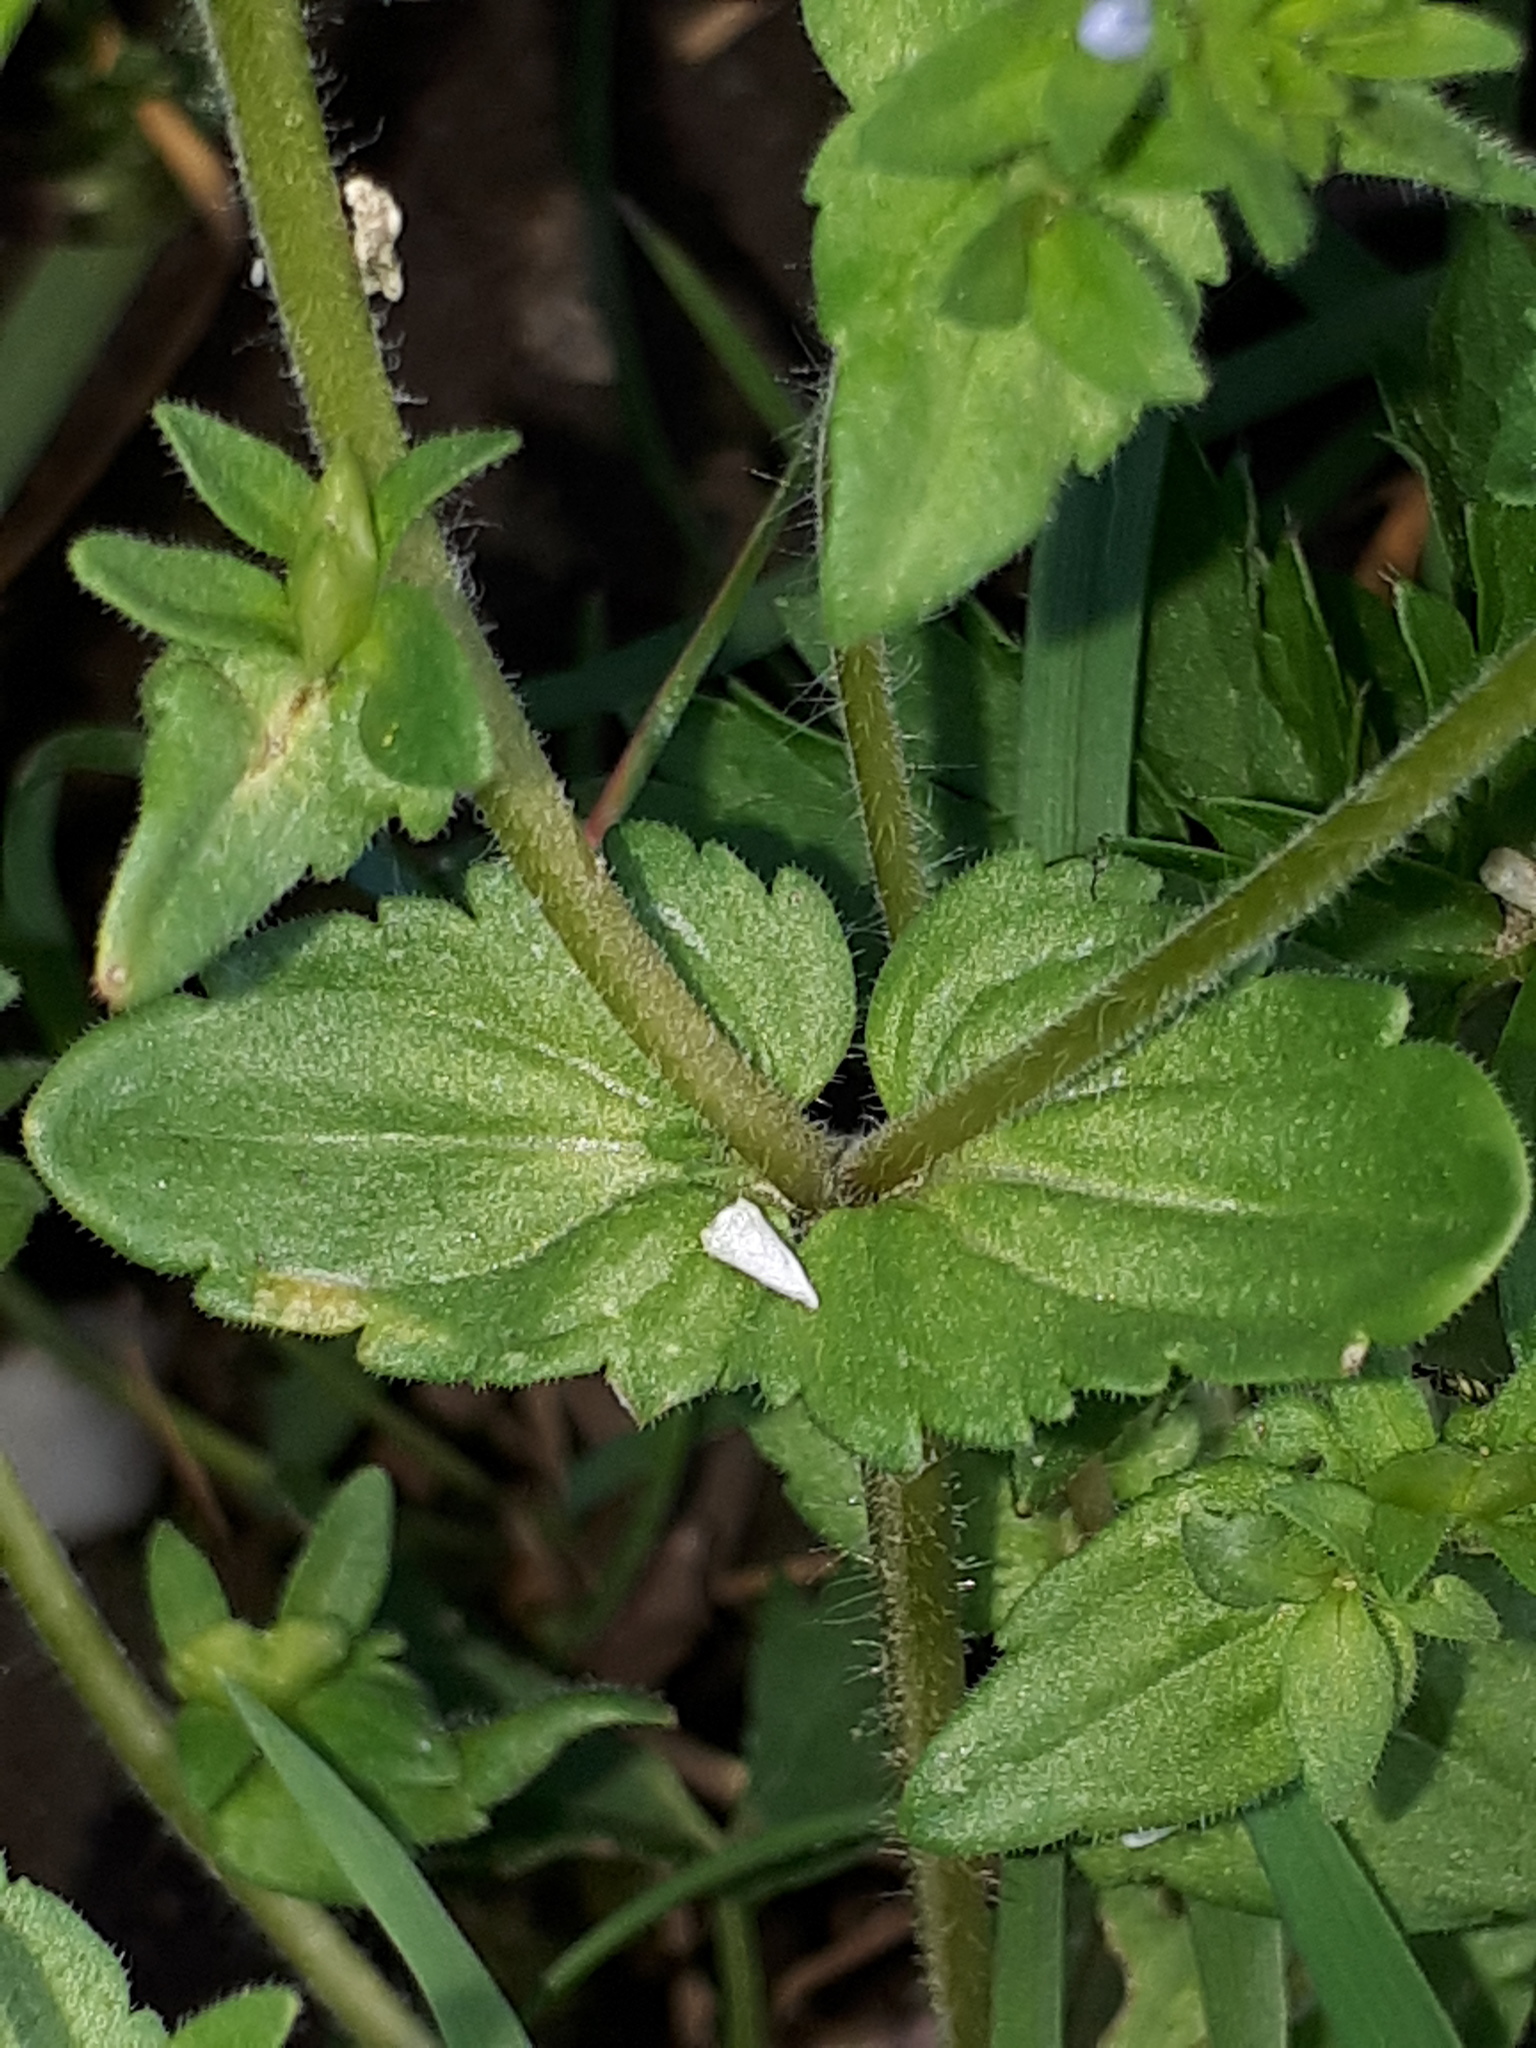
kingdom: Plantae
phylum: Tracheophyta
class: Magnoliopsida
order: Lamiales
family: Plantaginaceae
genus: Veronica
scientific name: Veronica arvensis
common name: Corn speedwell
